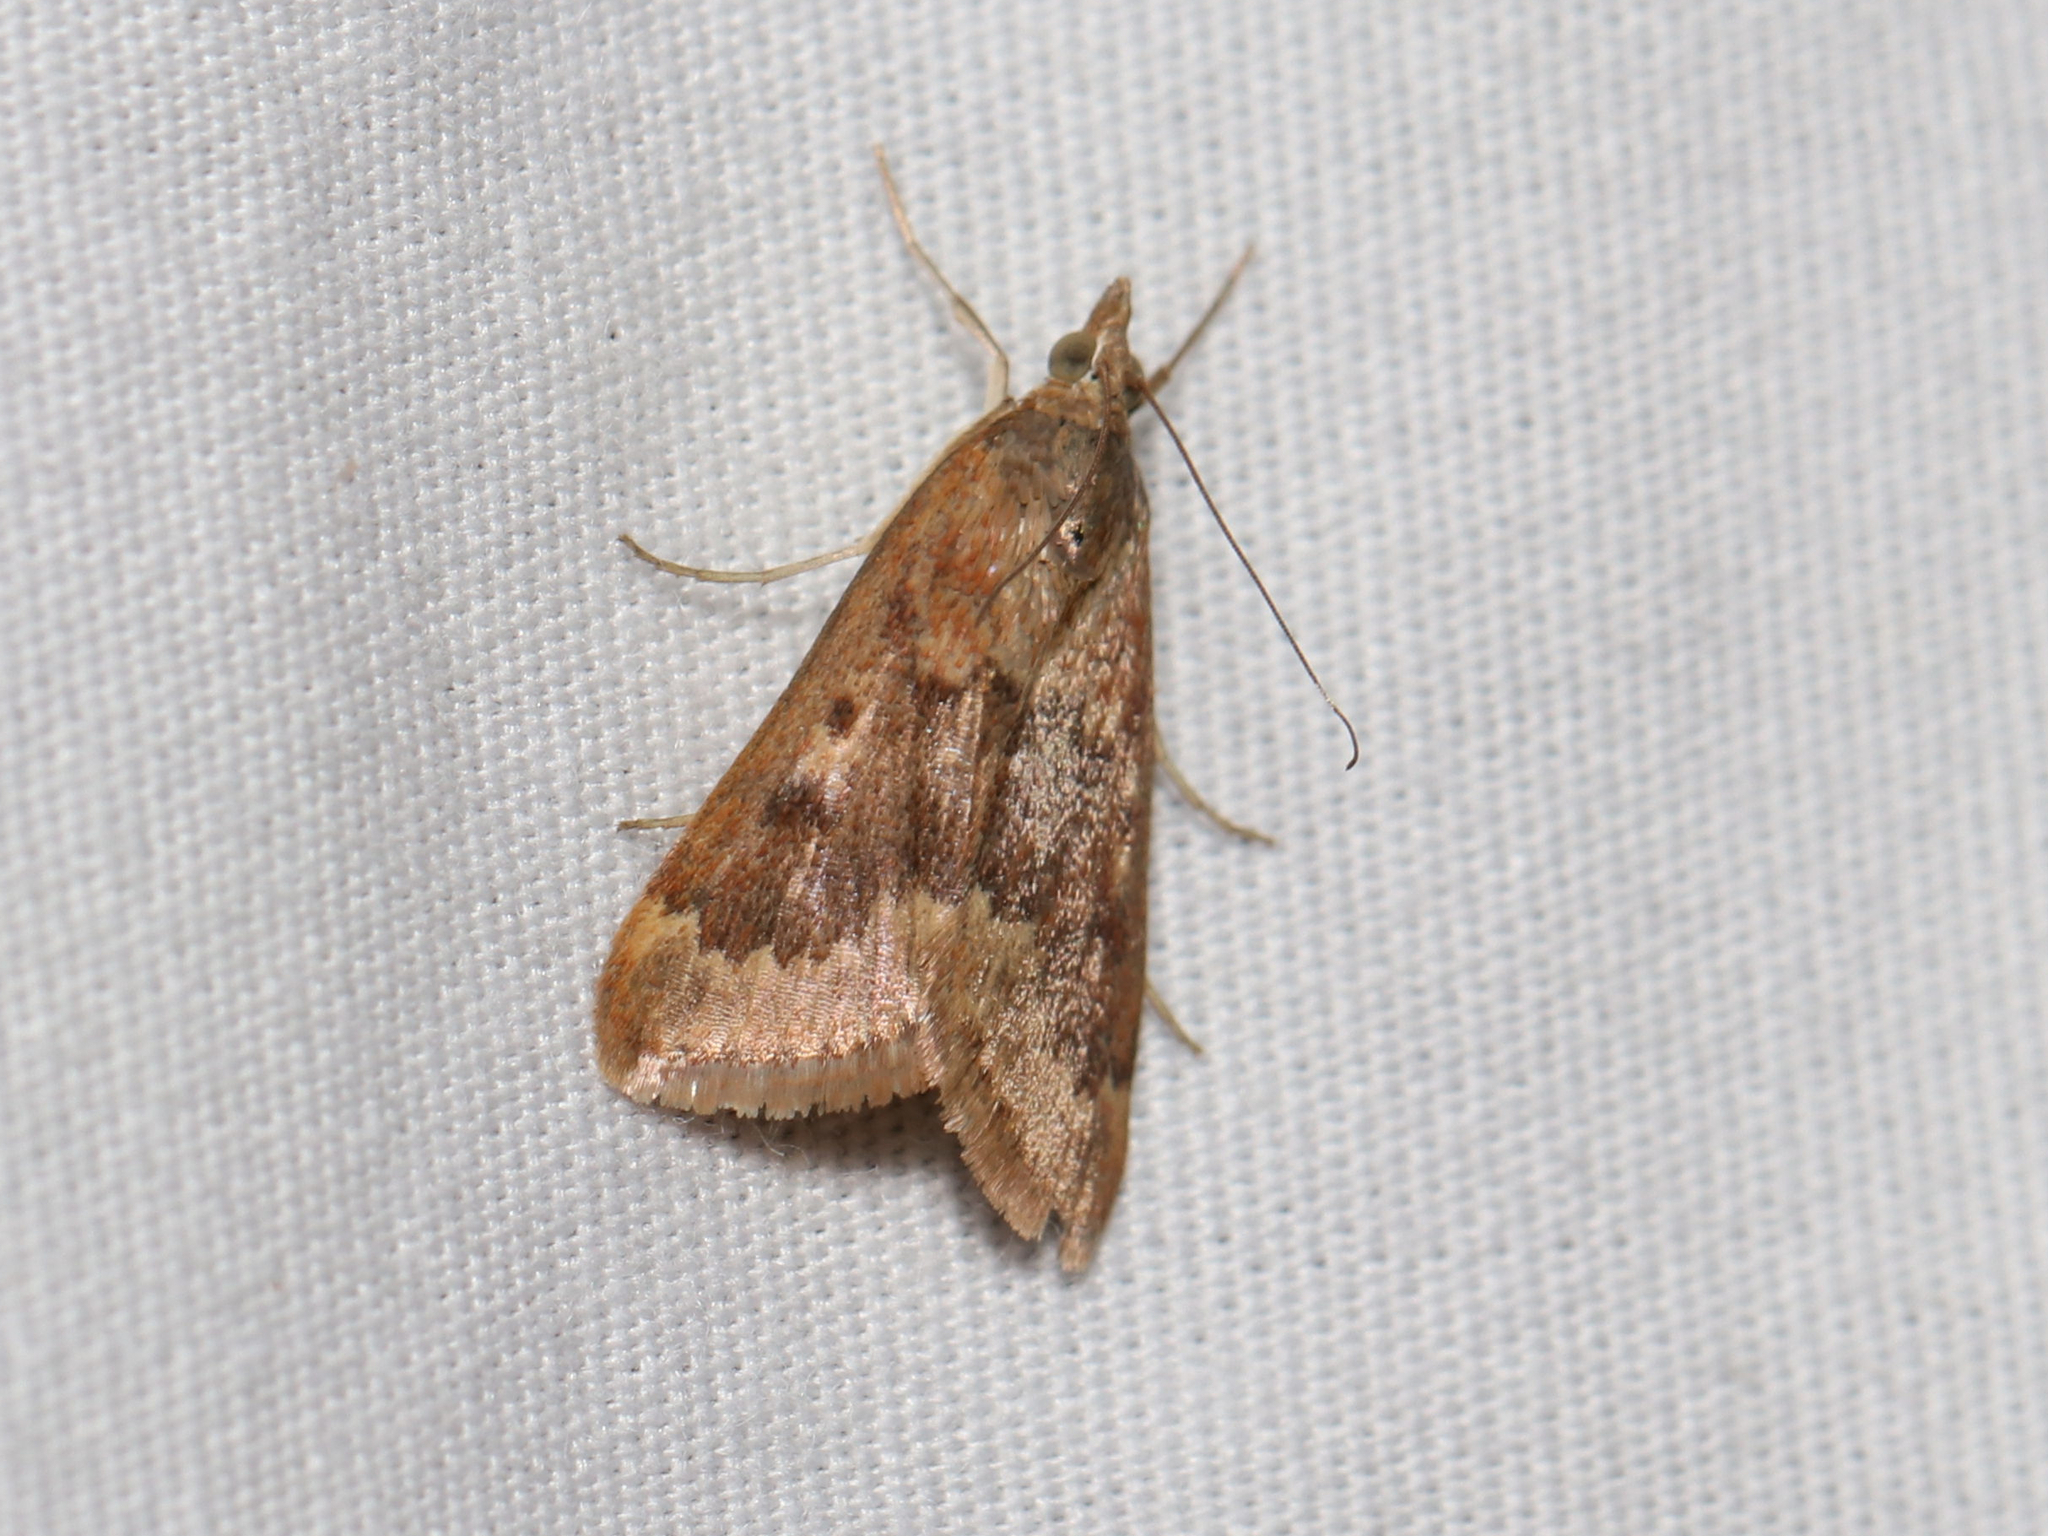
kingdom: Animalia
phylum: Arthropoda
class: Insecta
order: Lepidoptera
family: Crambidae
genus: Achyra
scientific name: Achyra rantalis
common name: Garden webworm
